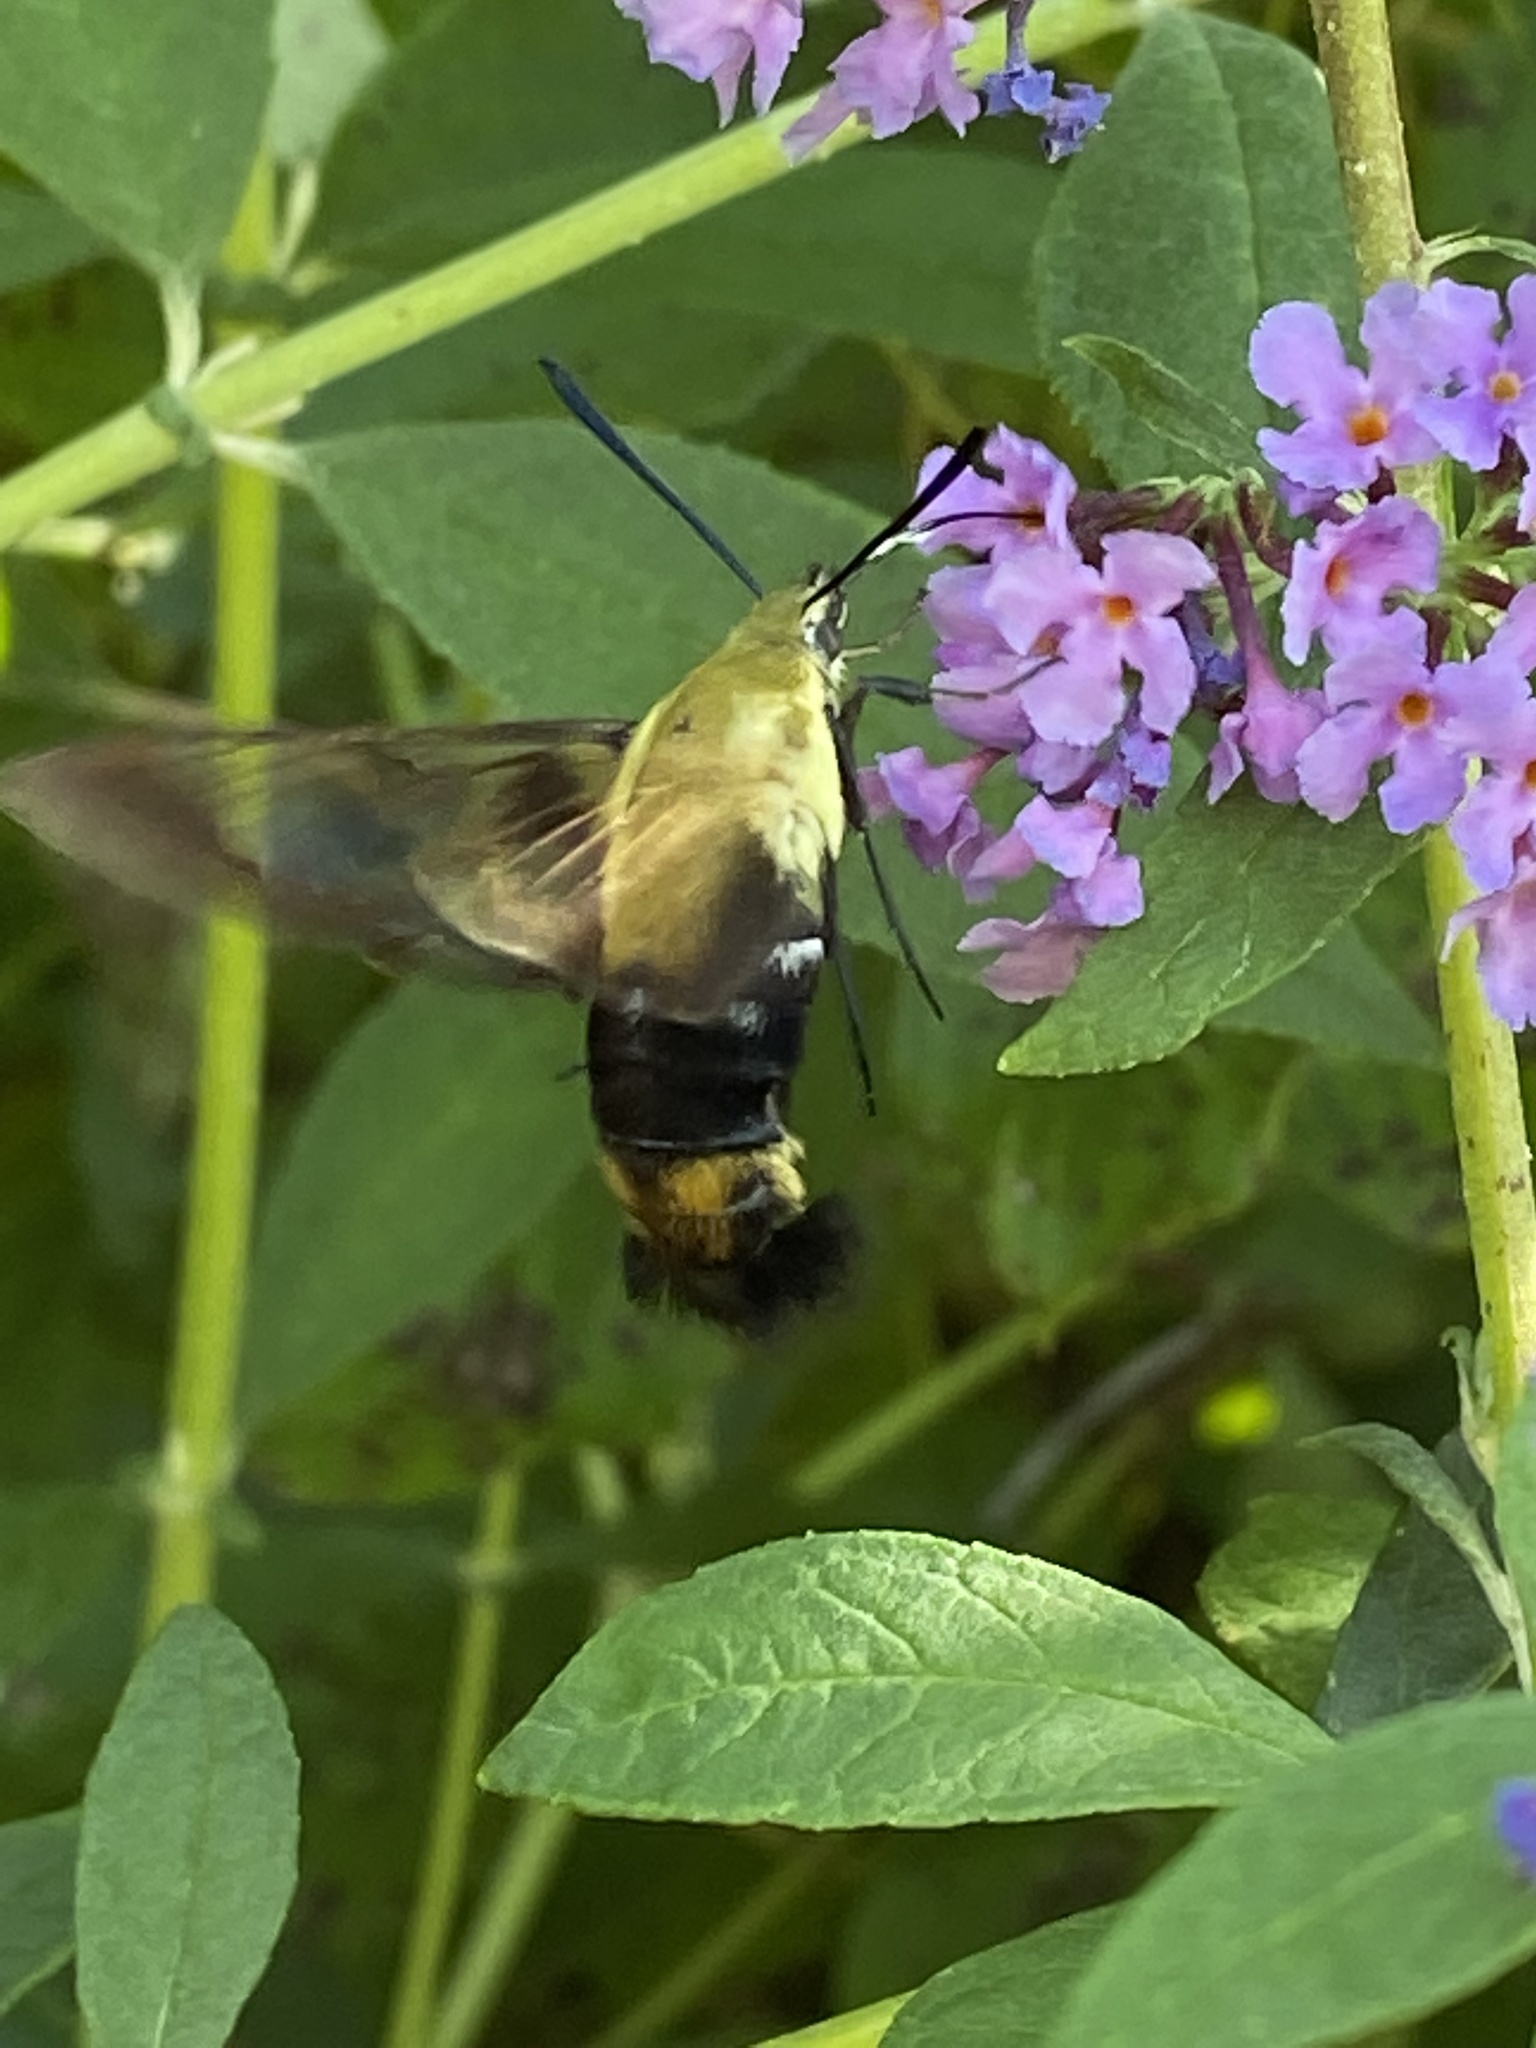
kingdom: Animalia
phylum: Arthropoda
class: Insecta
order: Lepidoptera
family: Sphingidae
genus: Hemaris
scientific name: Hemaris diffinis
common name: Bumblebee moth
